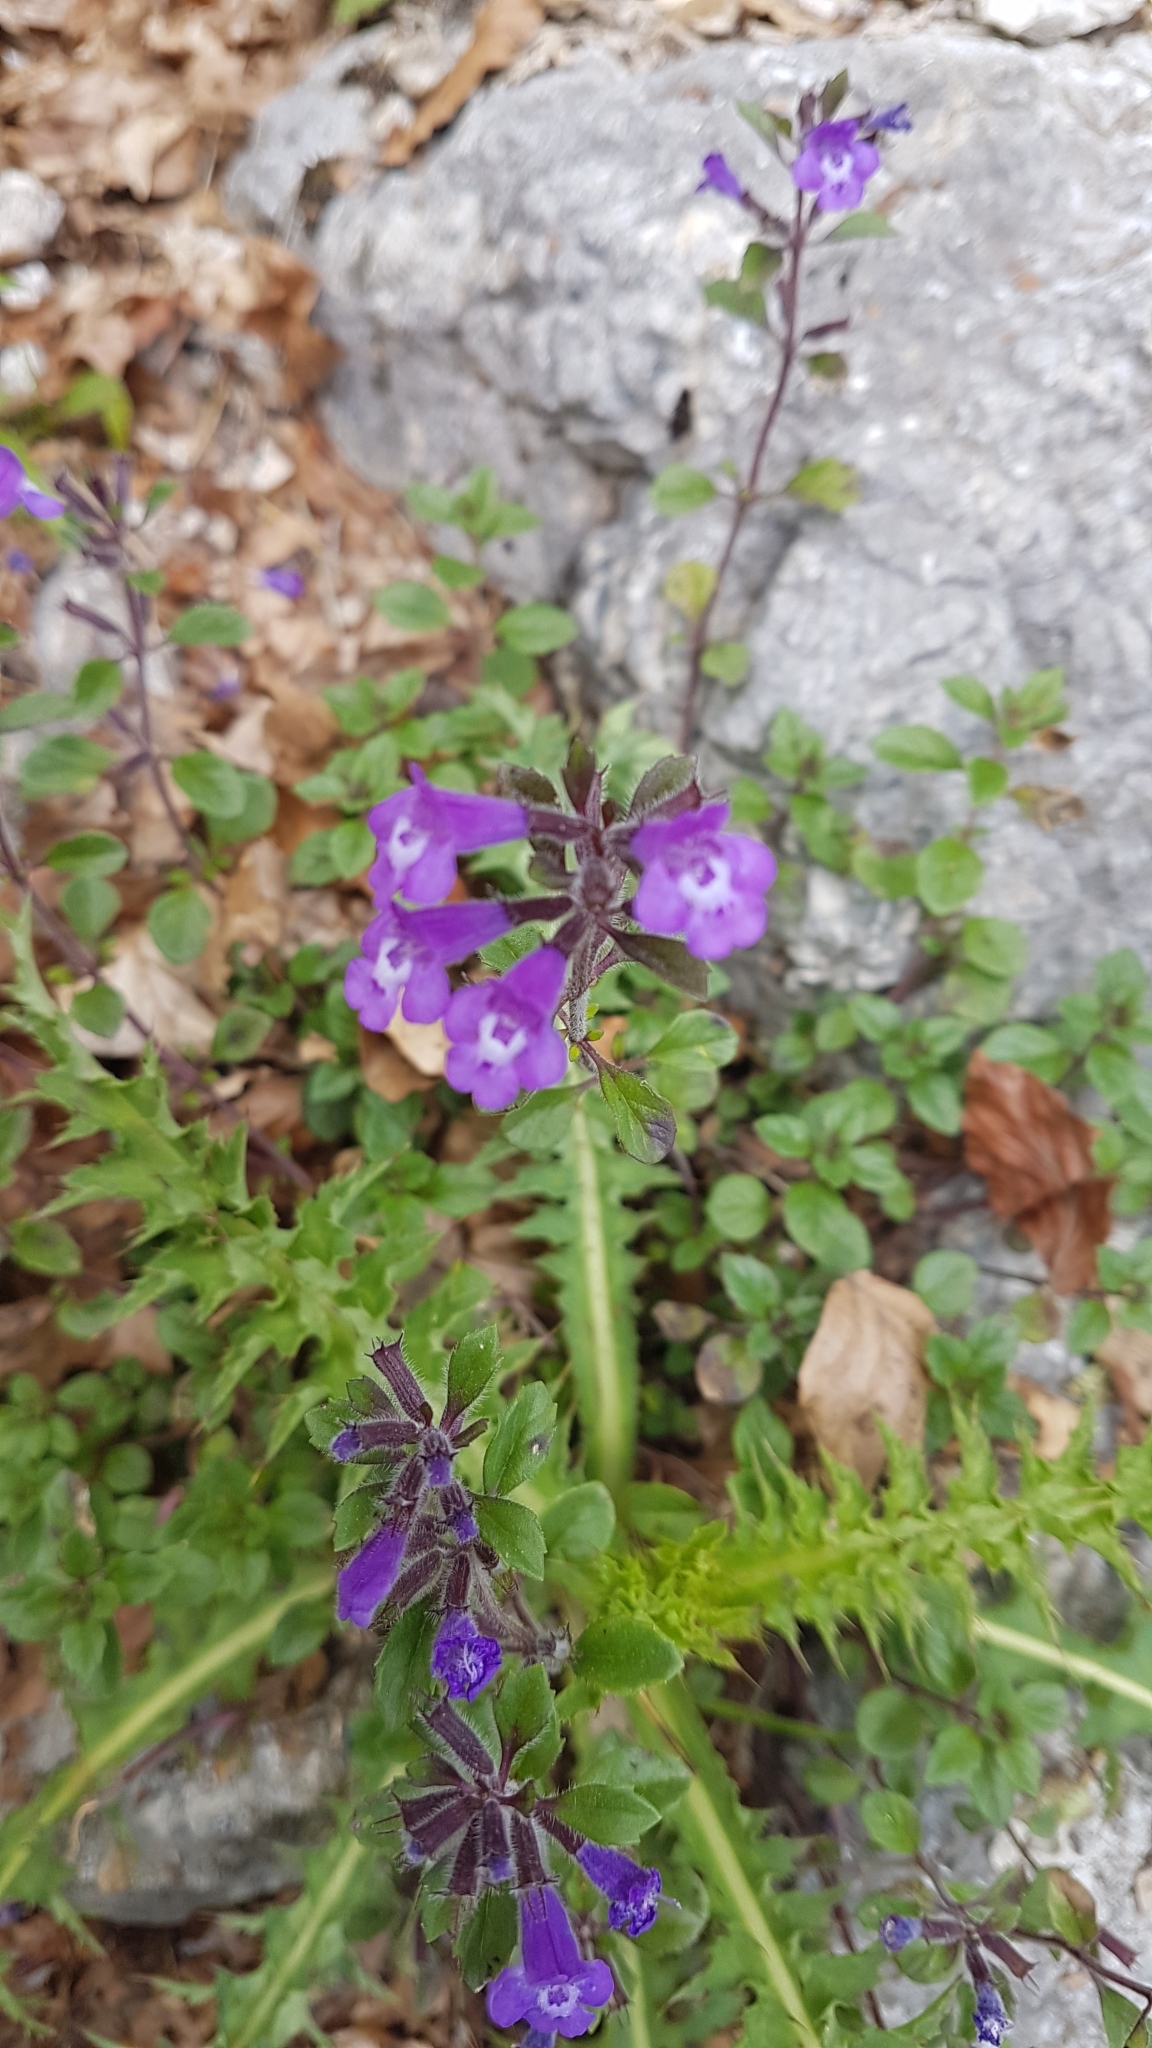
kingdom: Plantae
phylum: Tracheophyta
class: Magnoliopsida
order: Lamiales
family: Lamiaceae
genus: Clinopodium
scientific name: Clinopodium alpinum
